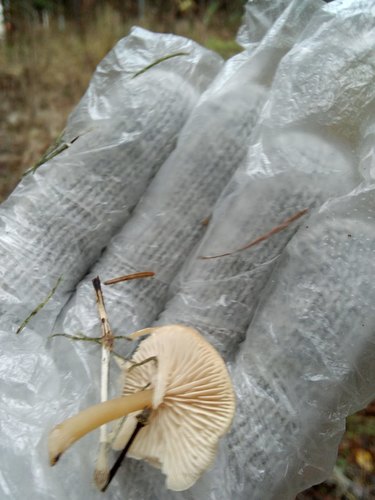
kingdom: Fungi
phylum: Basidiomycota
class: Agaricomycetes
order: Agaricales
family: Tricholomataceae
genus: Clitocybe
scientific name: Clitocybe
